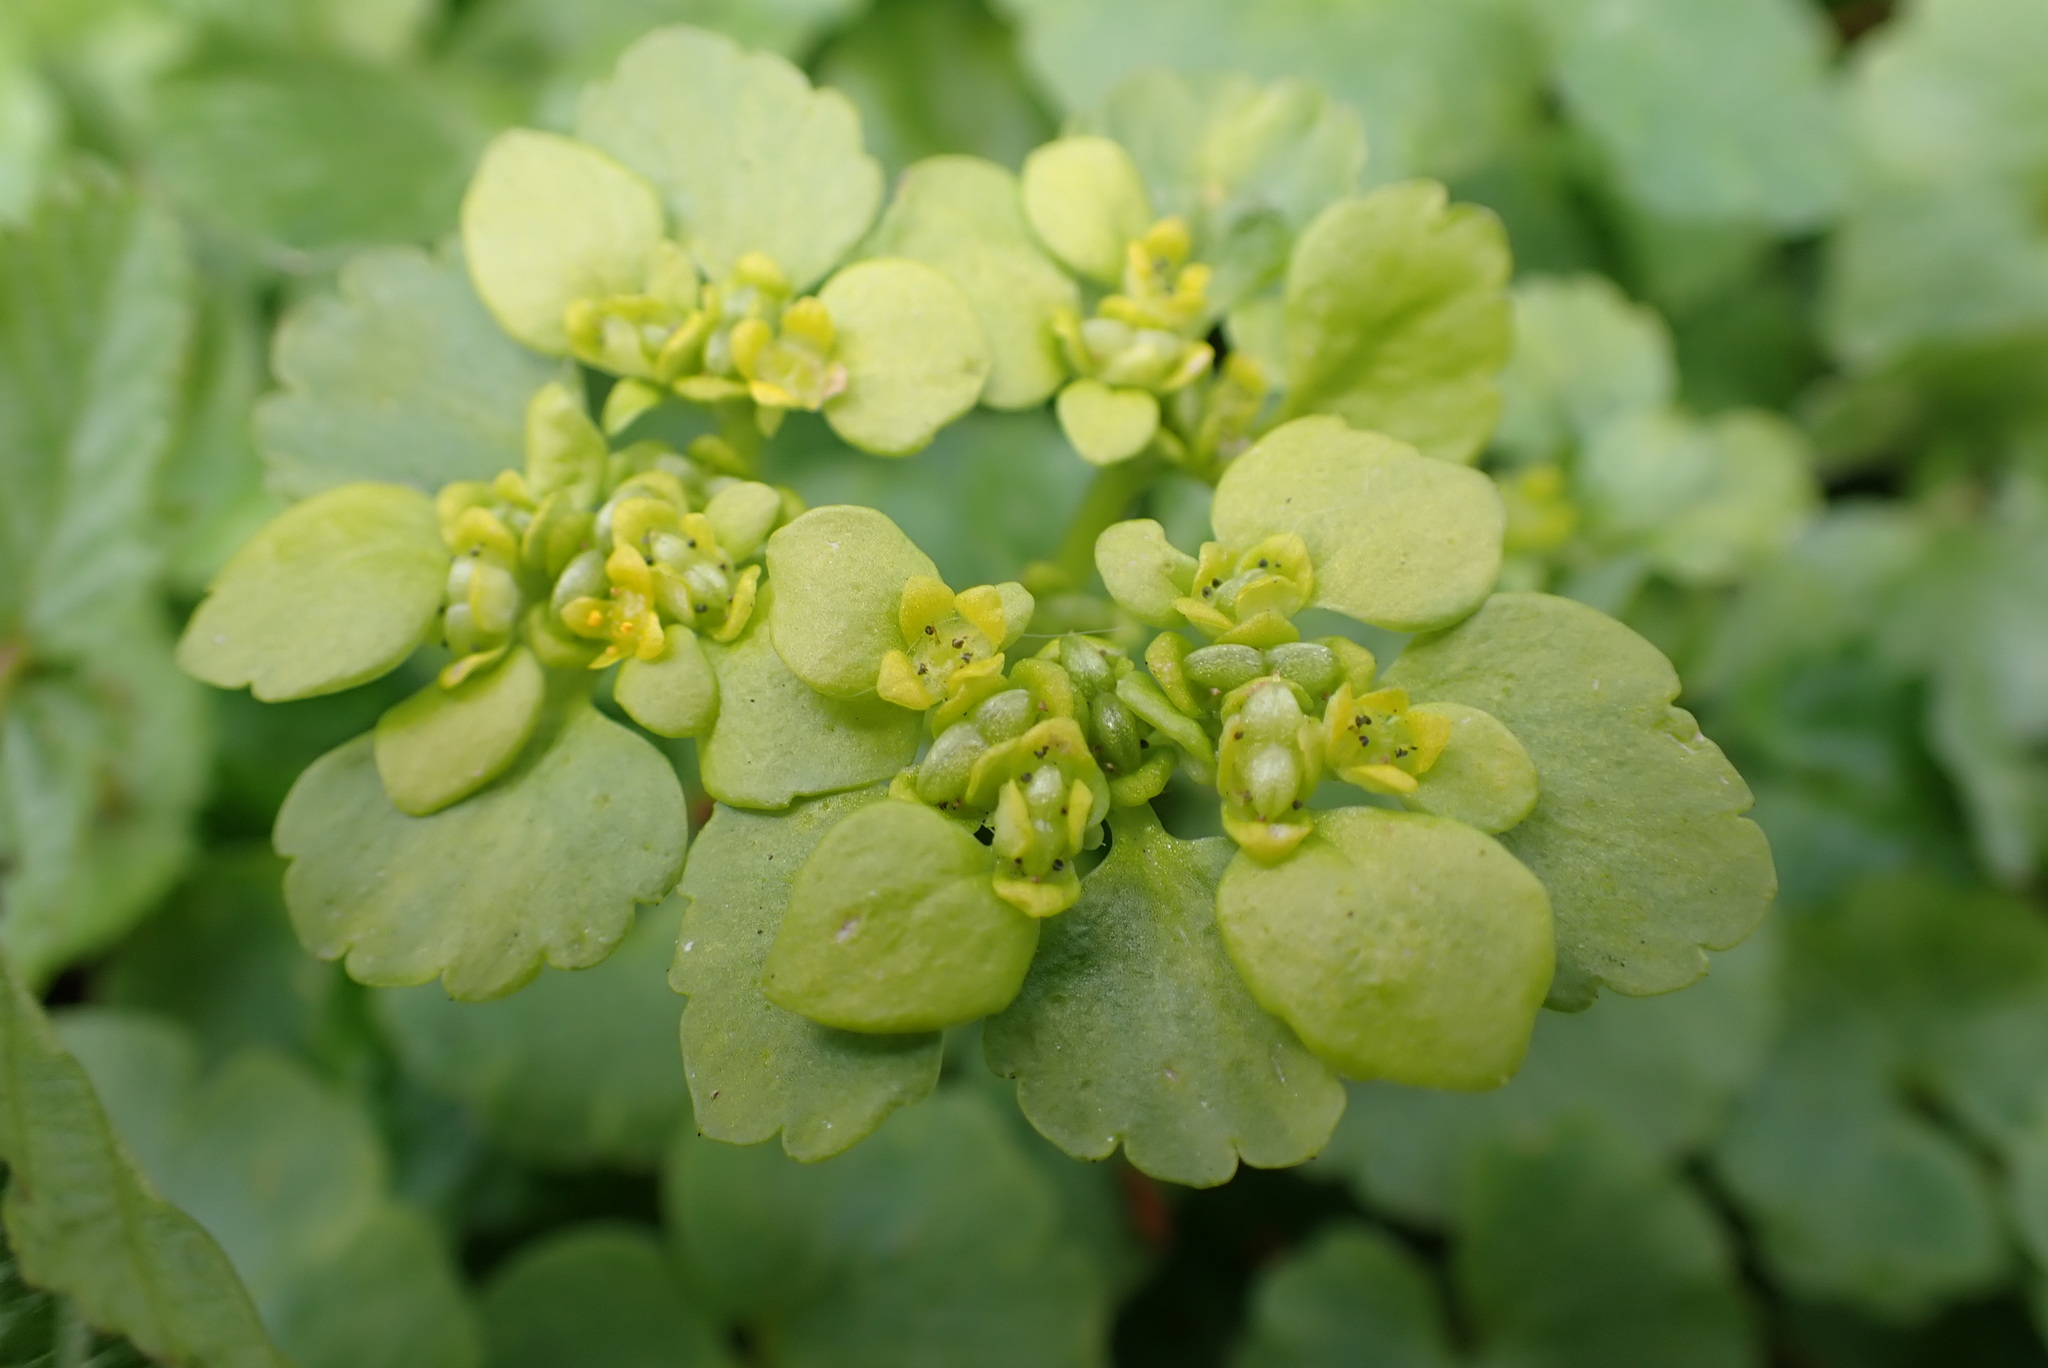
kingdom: Plantae
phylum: Tracheophyta
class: Magnoliopsida
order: Saxifragales
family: Saxifragaceae
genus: Chrysosplenium
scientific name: Chrysosplenium alternifolium
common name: Alternate-leaved golden-saxifrage
